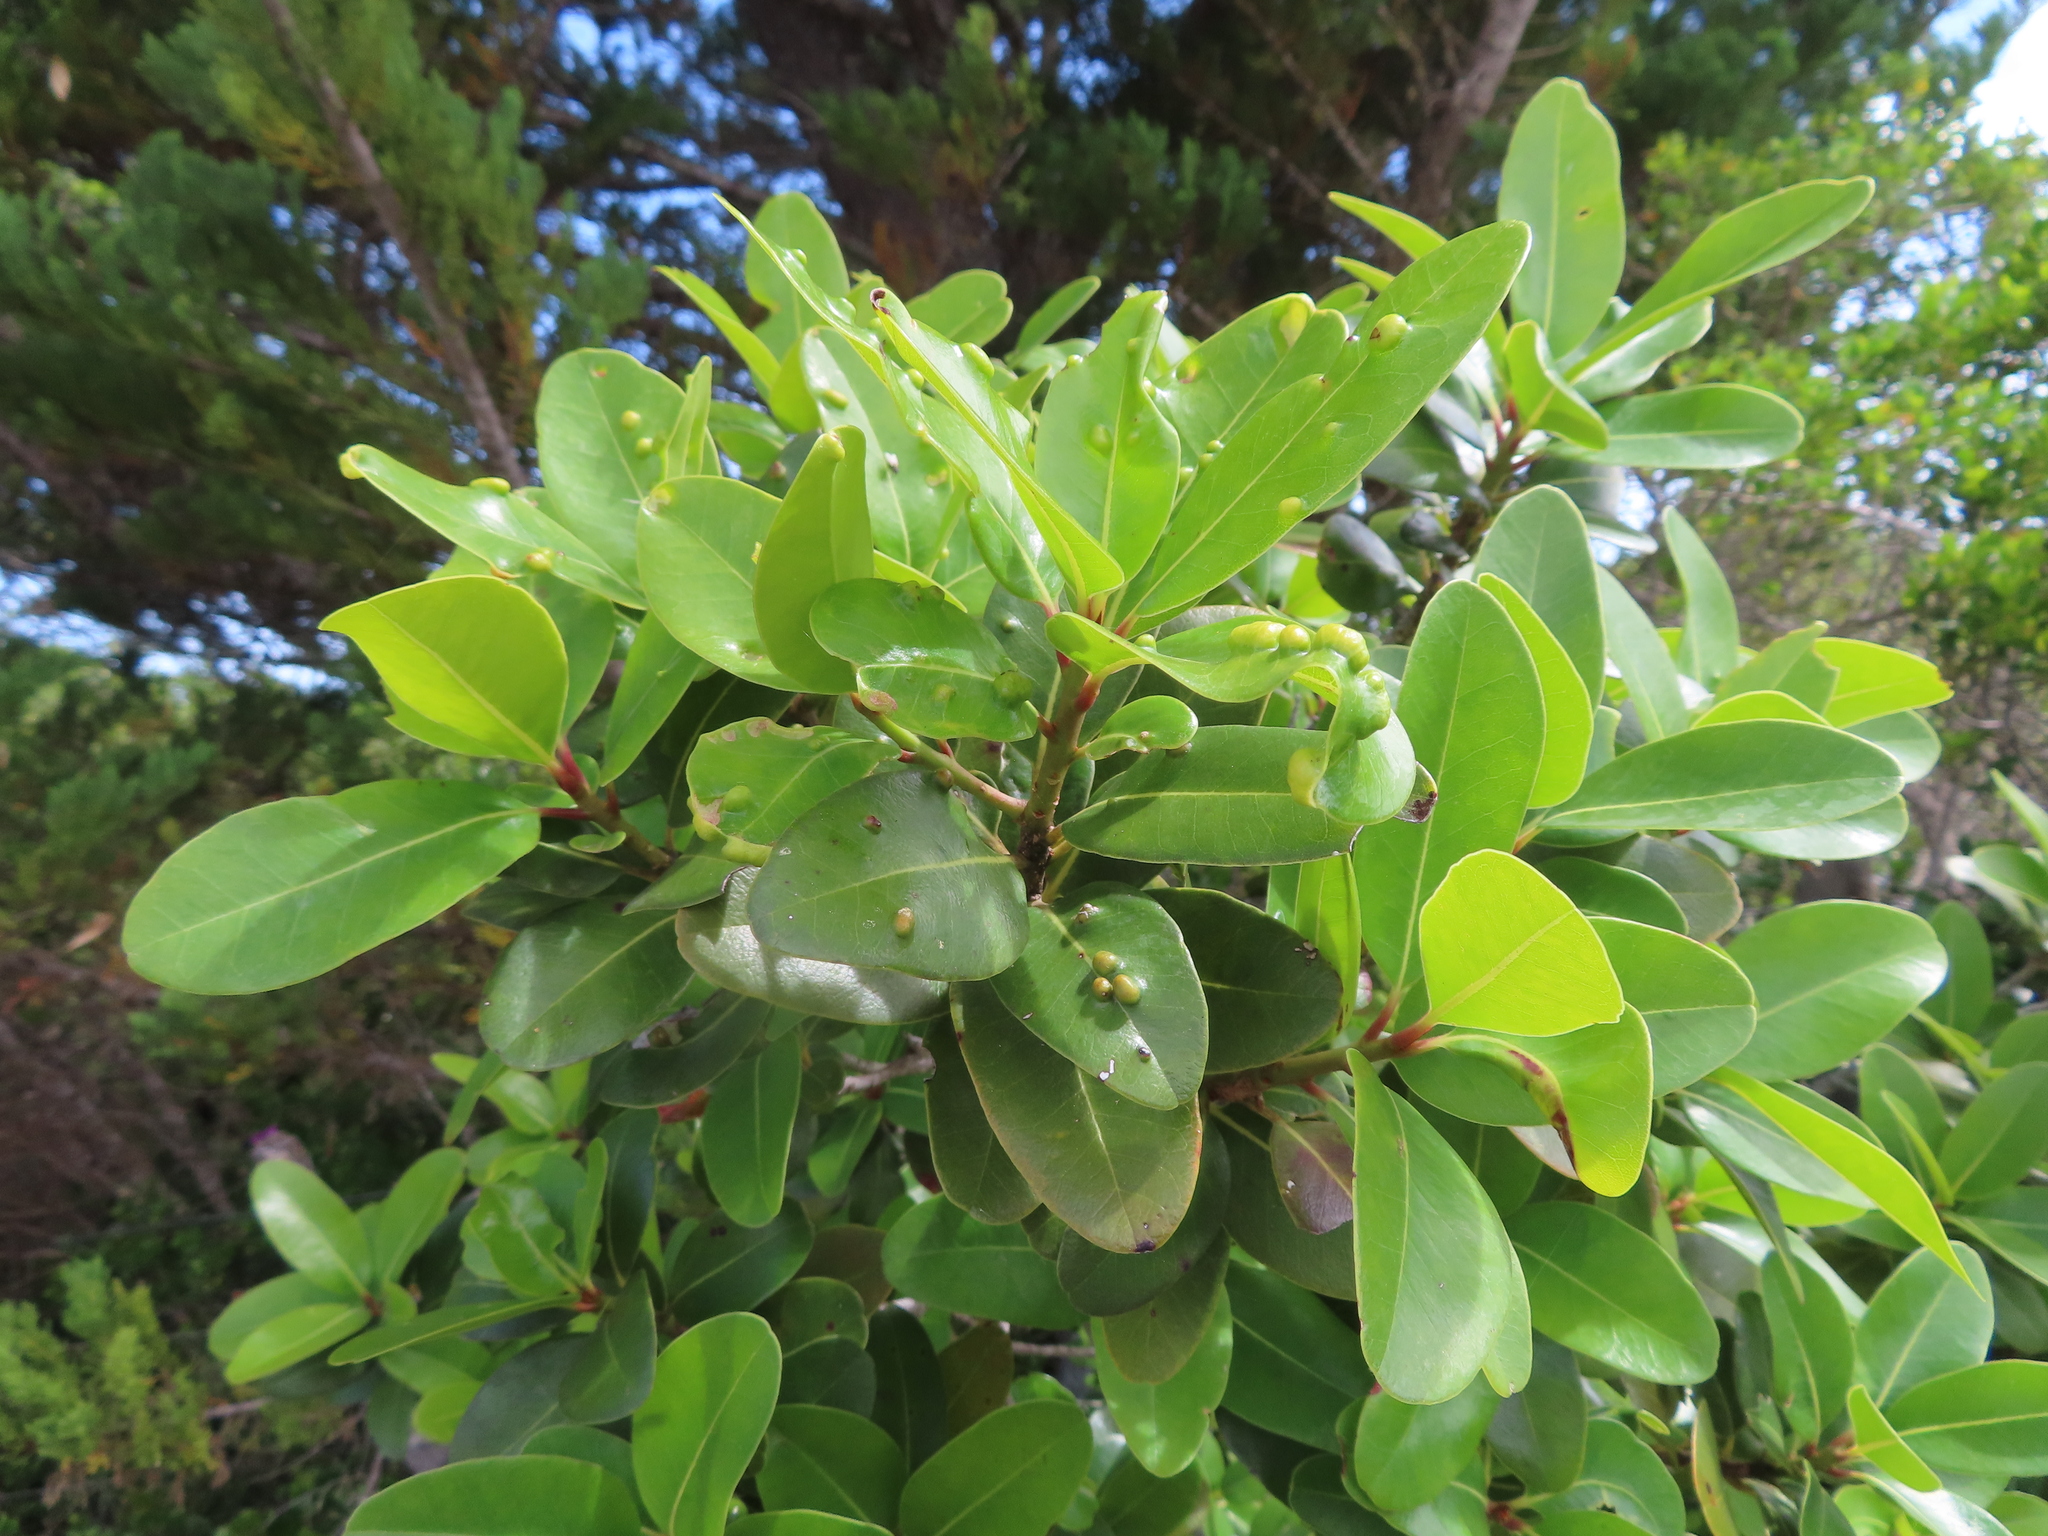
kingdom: Plantae
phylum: Tracheophyta
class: Magnoliopsida
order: Ericales
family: Sapotaceae
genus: Sideroxylon
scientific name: Sideroxylon inerme
